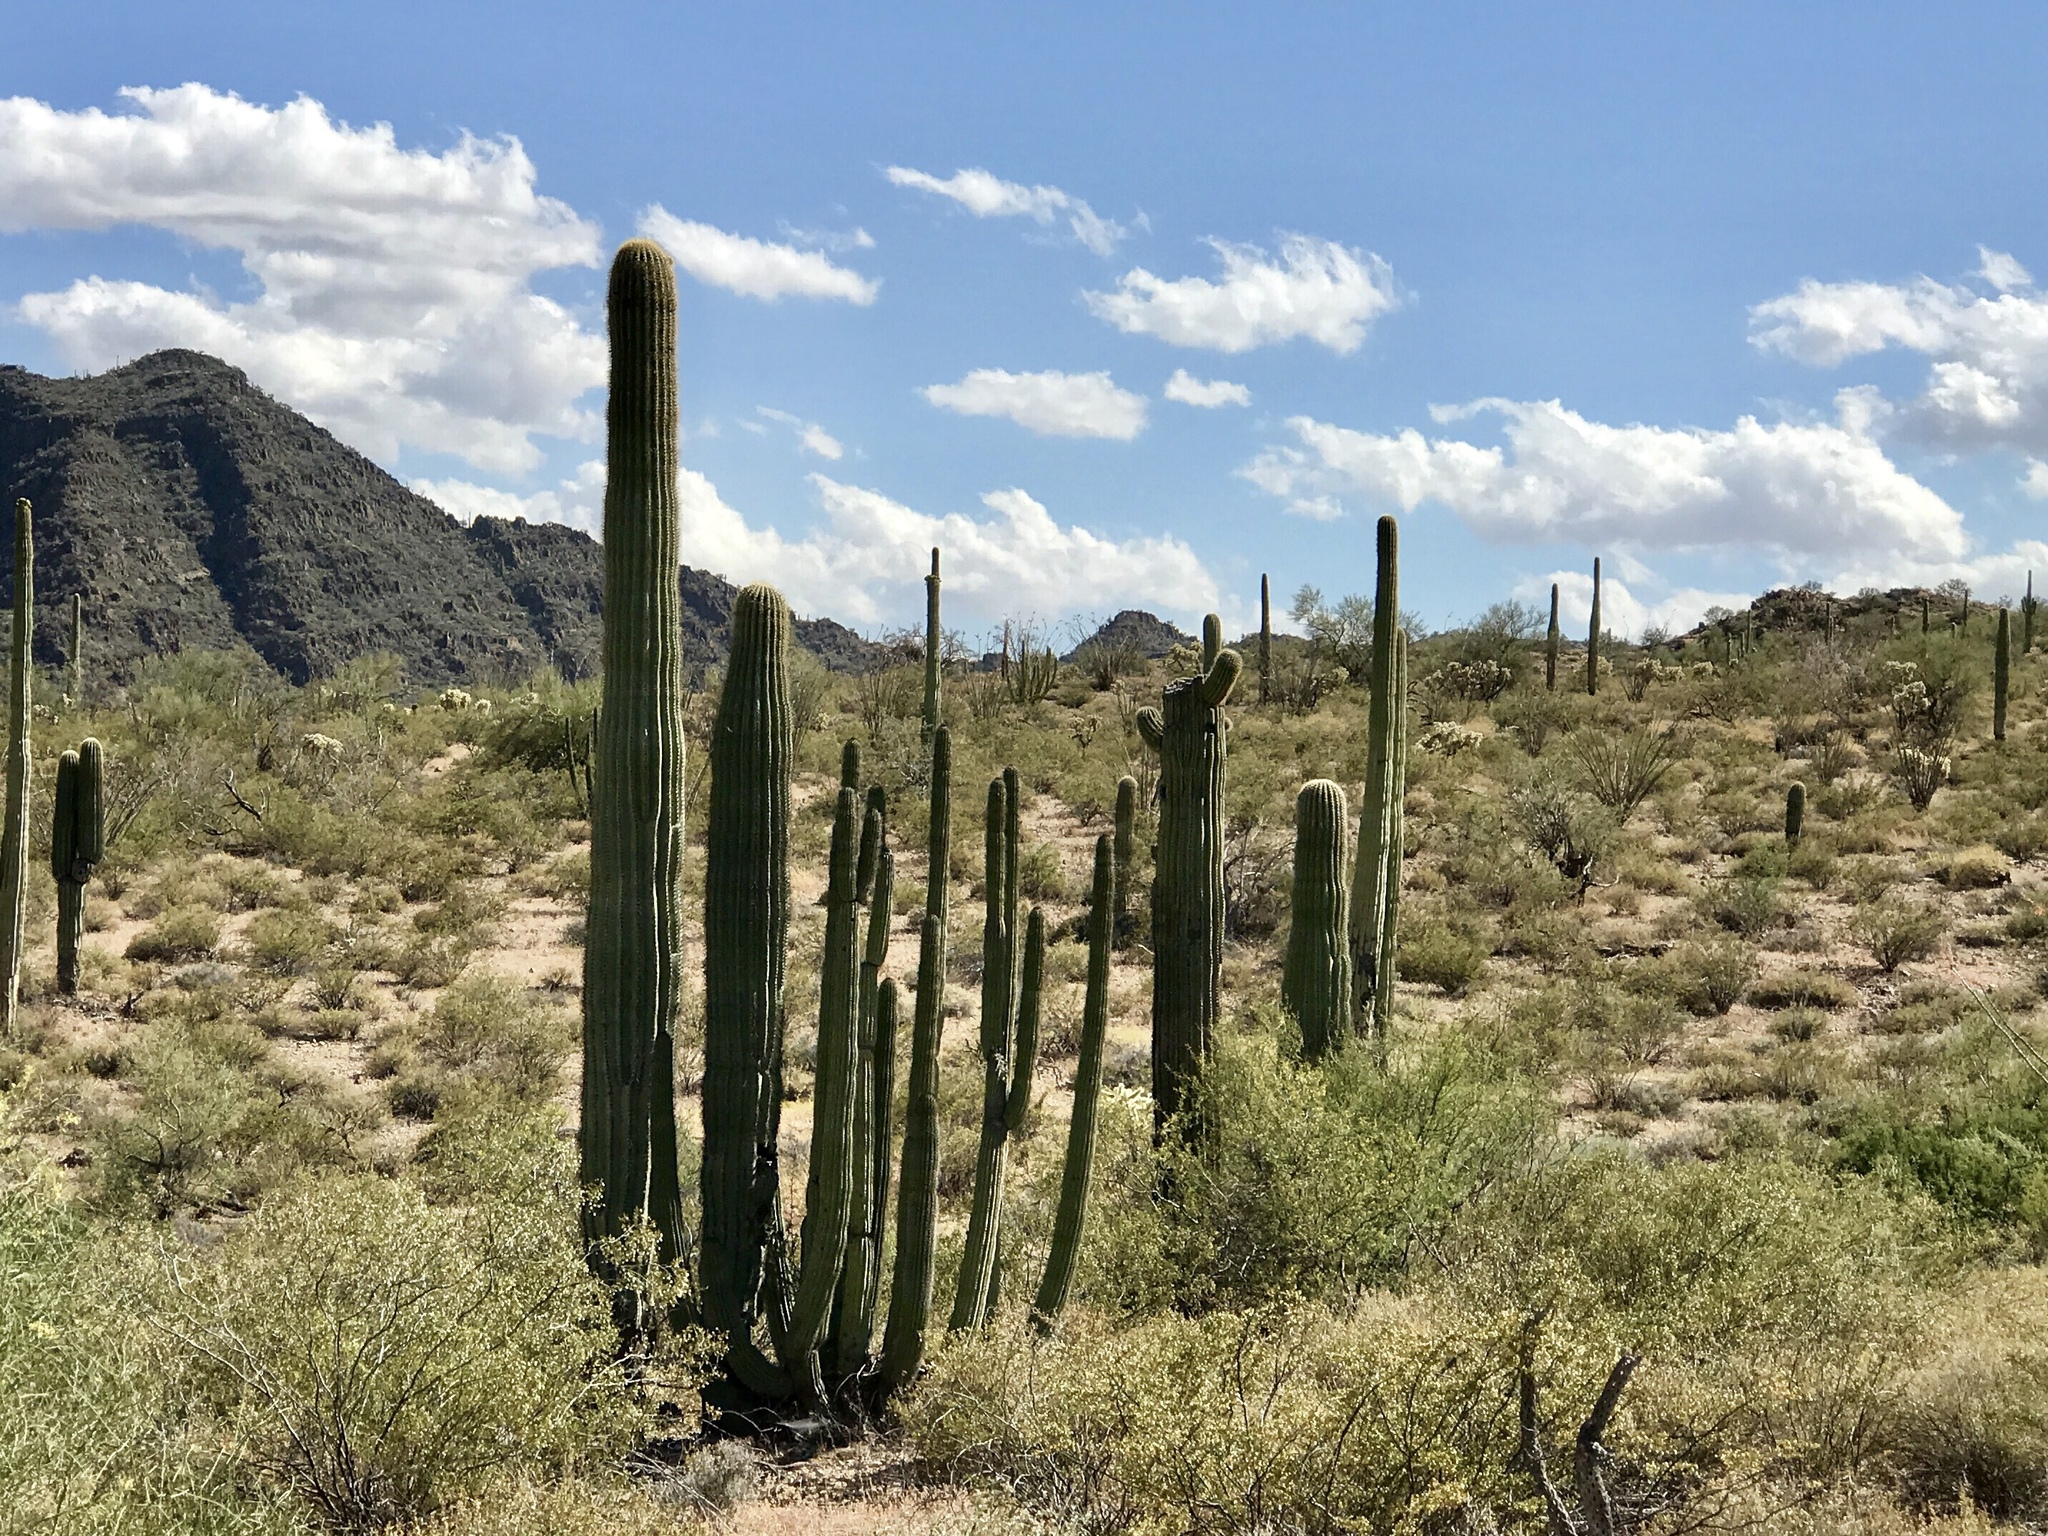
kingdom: Plantae
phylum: Tracheophyta
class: Magnoliopsida
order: Caryophyllales
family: Cactaceae
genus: Stenocereus
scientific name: Stenocereus thurberi
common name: Organ pipe cactus
